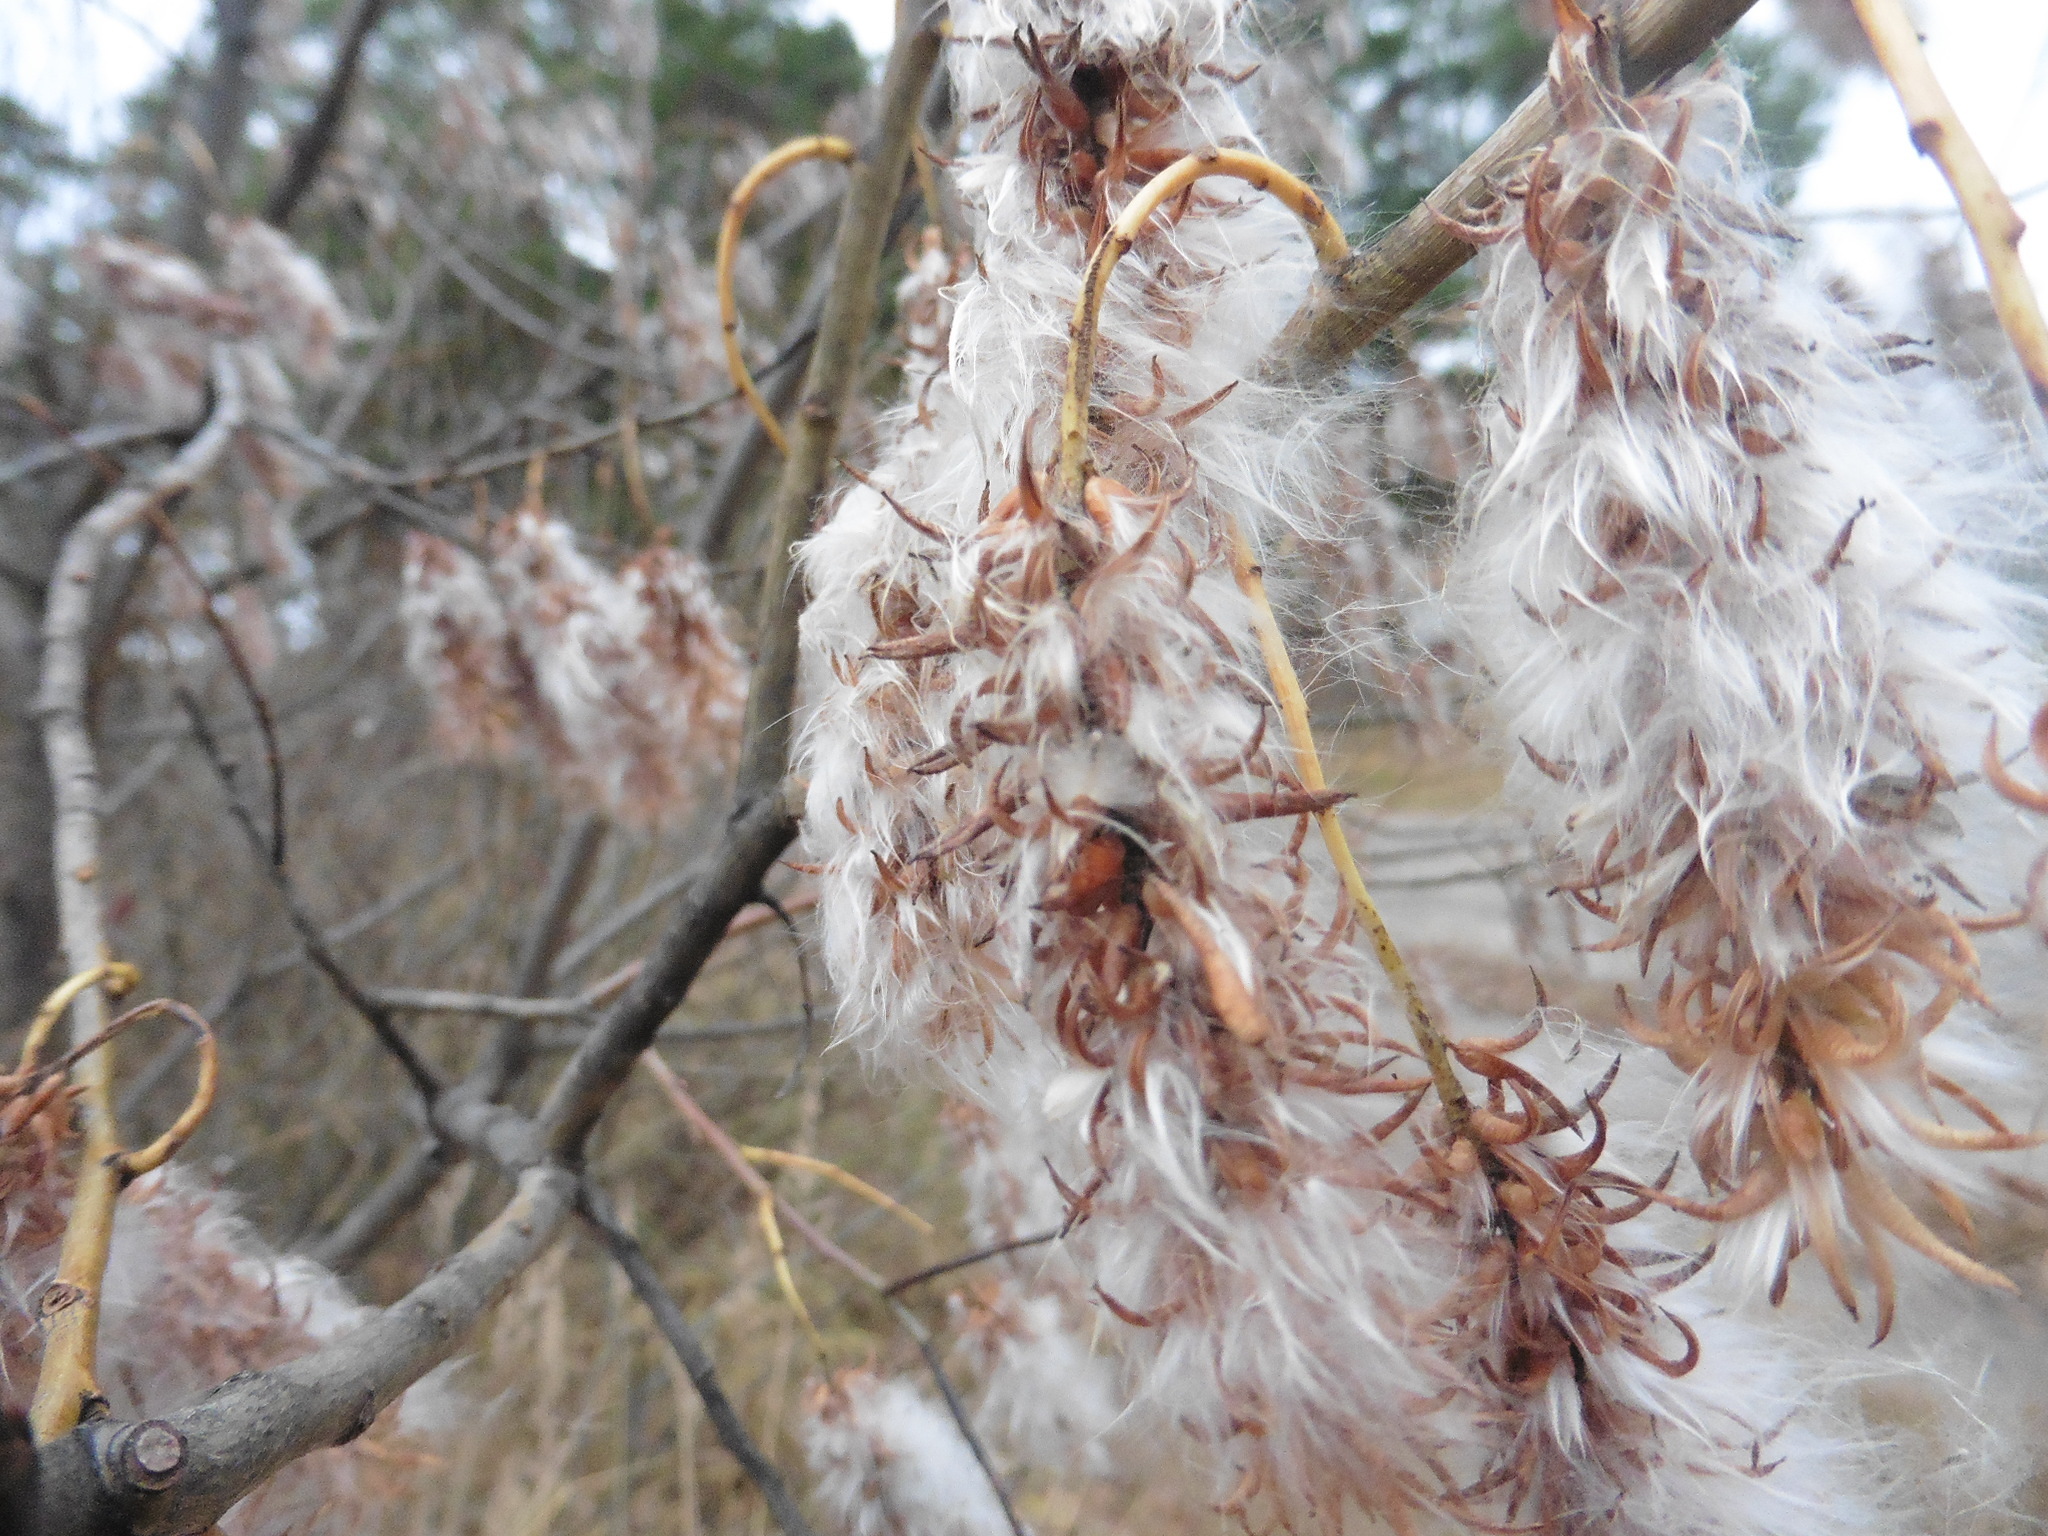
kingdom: Plantae
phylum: Tracheophyta
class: Magnoliopsida
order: Malpighiales
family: Salicaceae
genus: Salix
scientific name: Salix pentandra
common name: Bay willow
